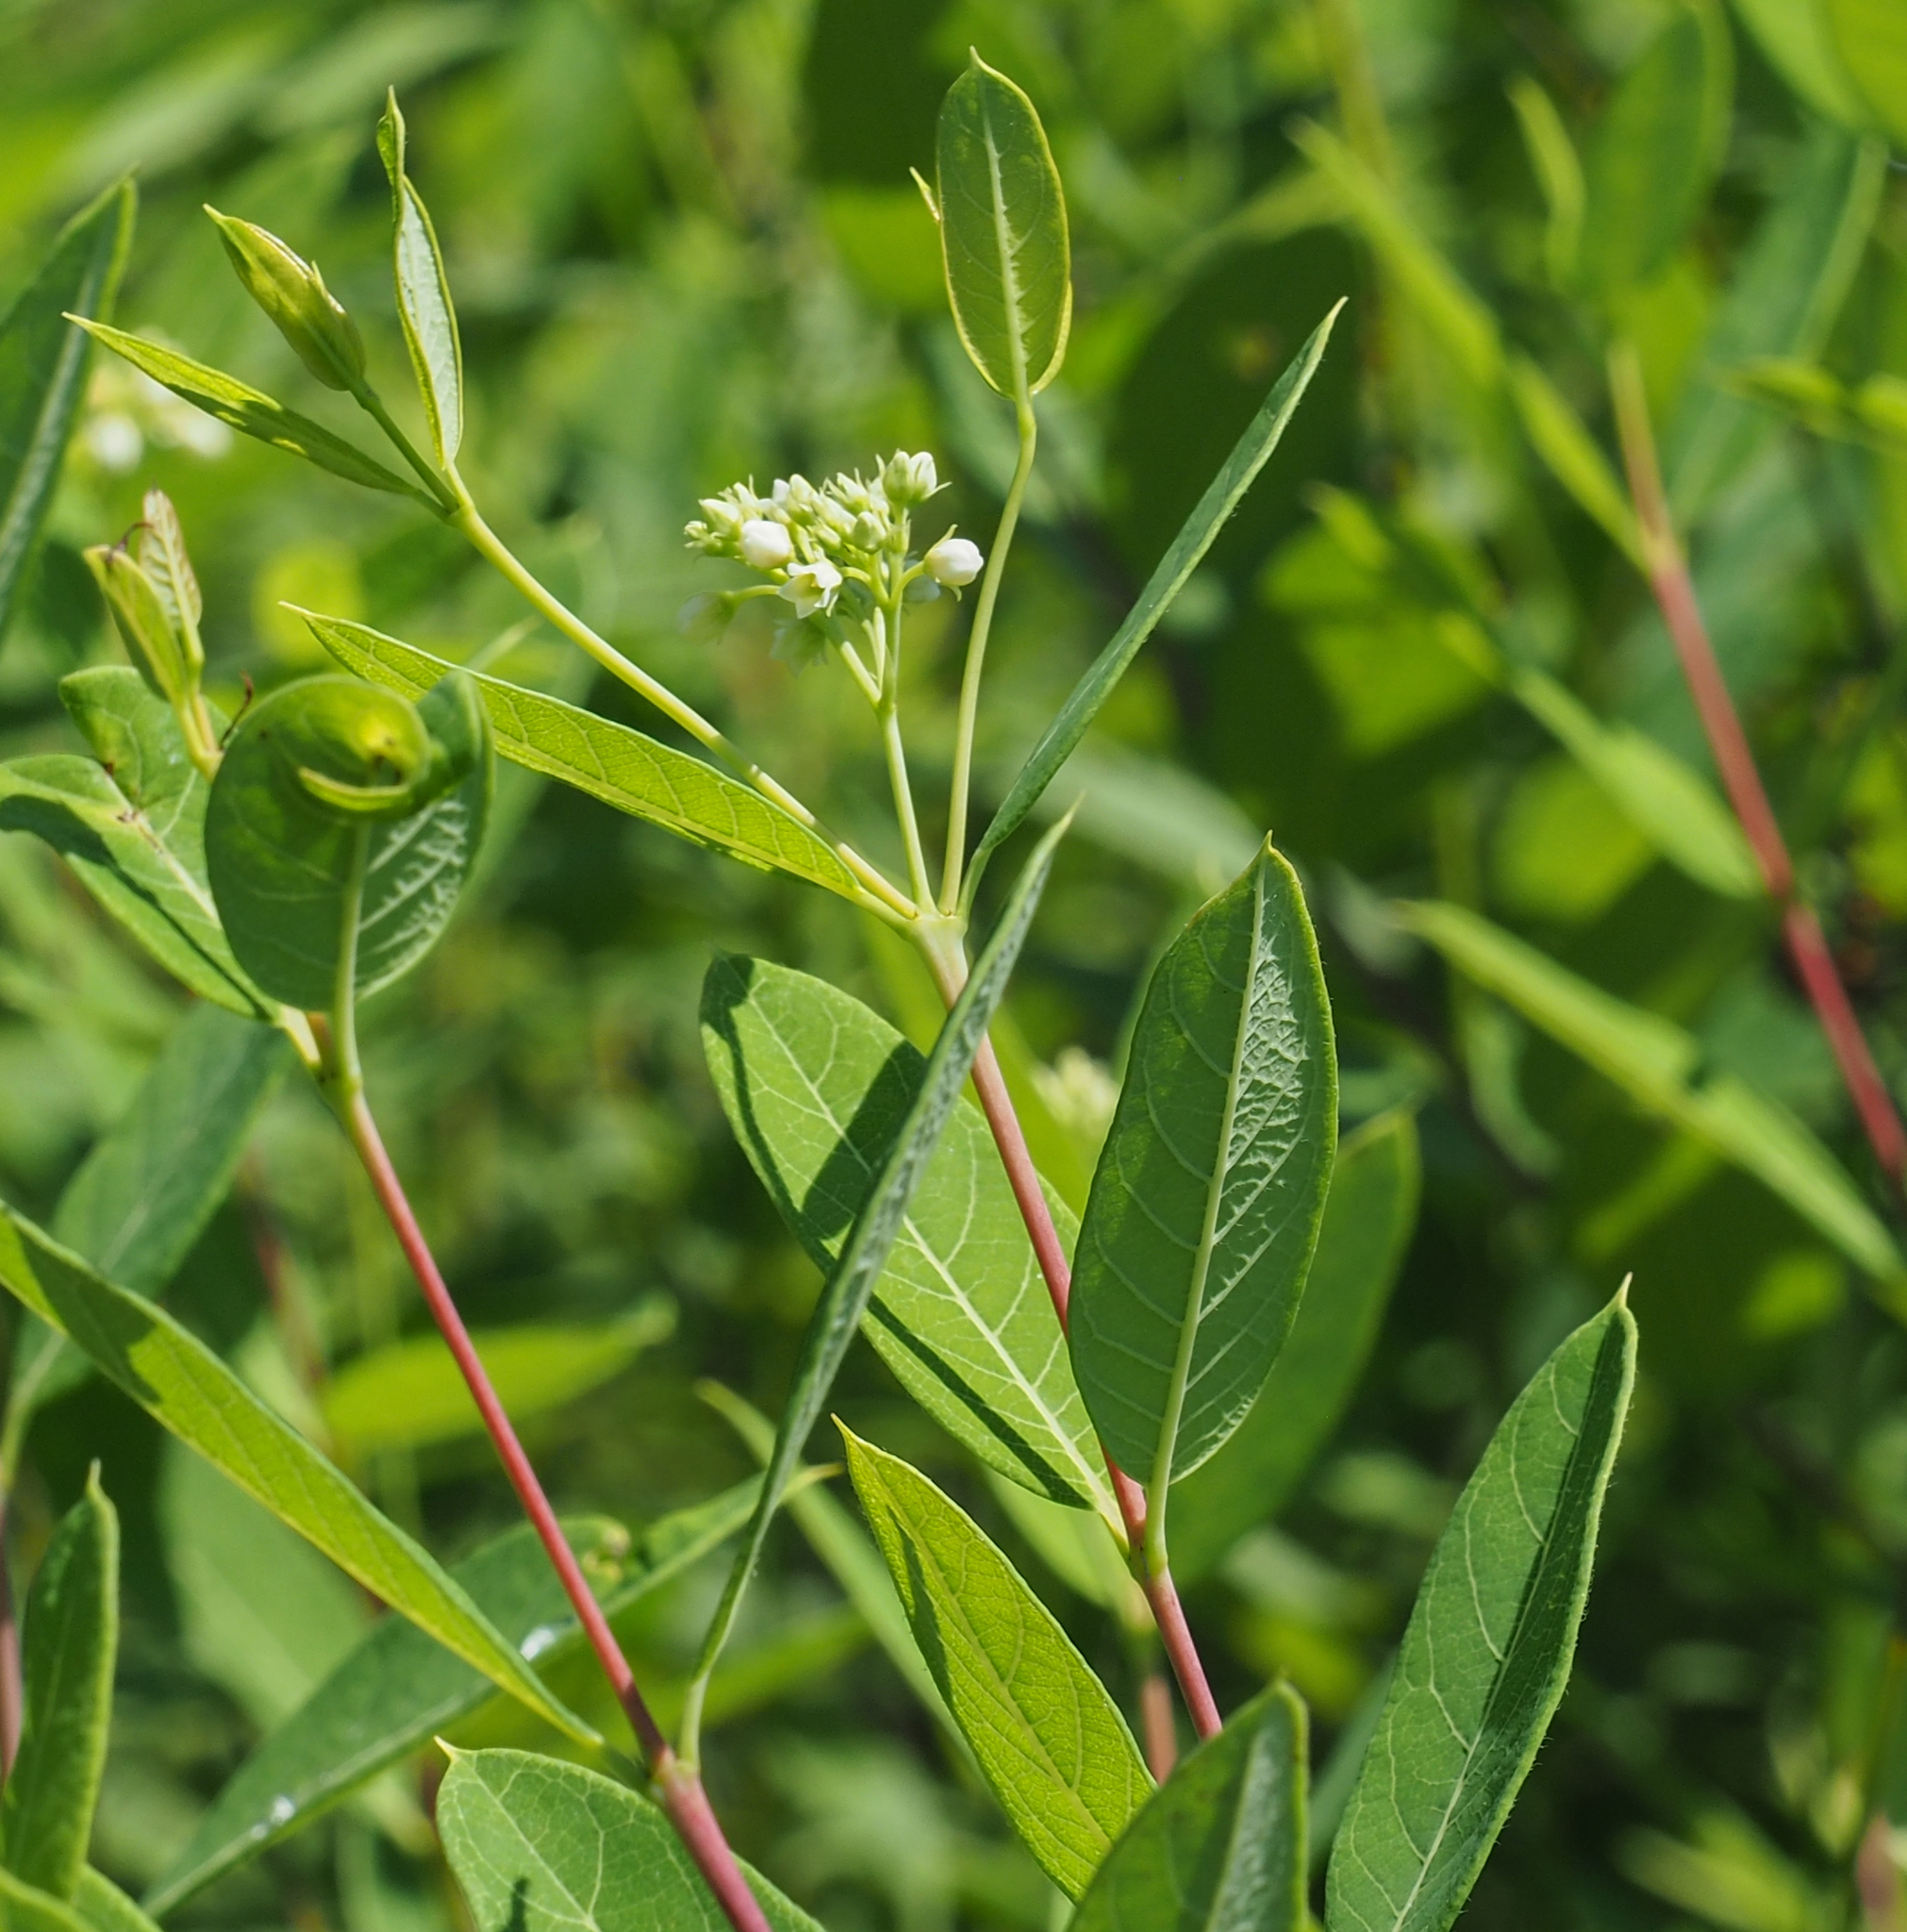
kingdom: Plantae
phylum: Tracheophyta
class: Magnoliopsida
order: Gentianales
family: Apocynaceae
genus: Apocynum
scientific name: Apocynum cannabinum
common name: Hemp dogbane
